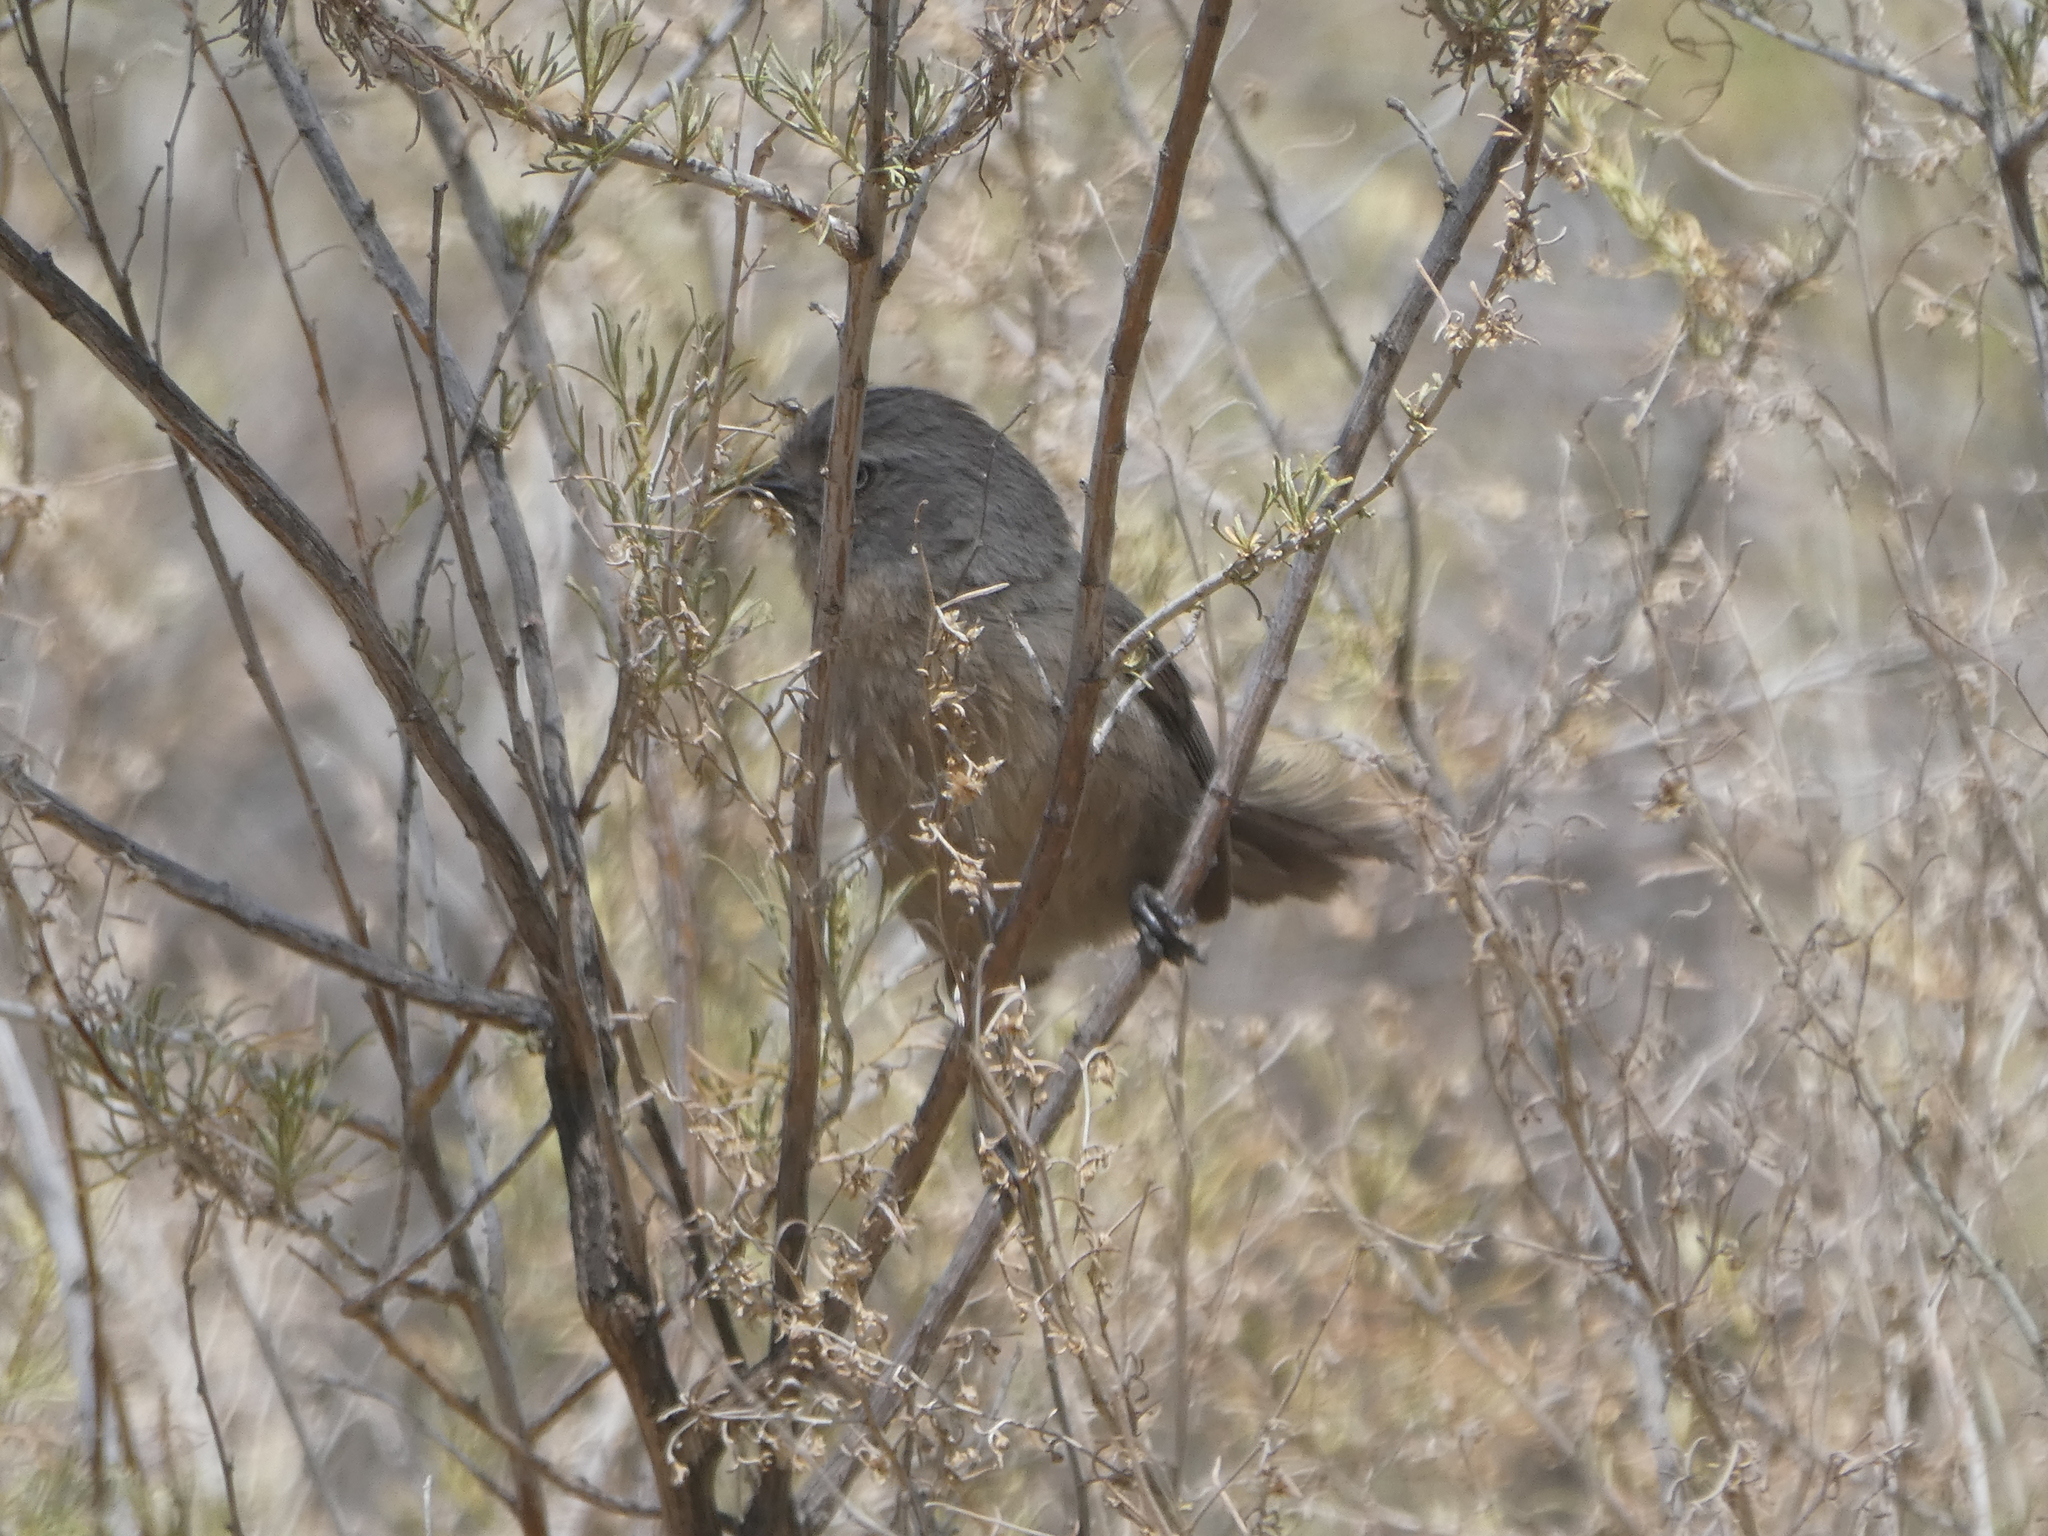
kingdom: Animalia
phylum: Chordata
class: Aves
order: Passeriformes
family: Sylviidae
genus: Chamaea
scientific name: Chamaea fasciata
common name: Wrentit
